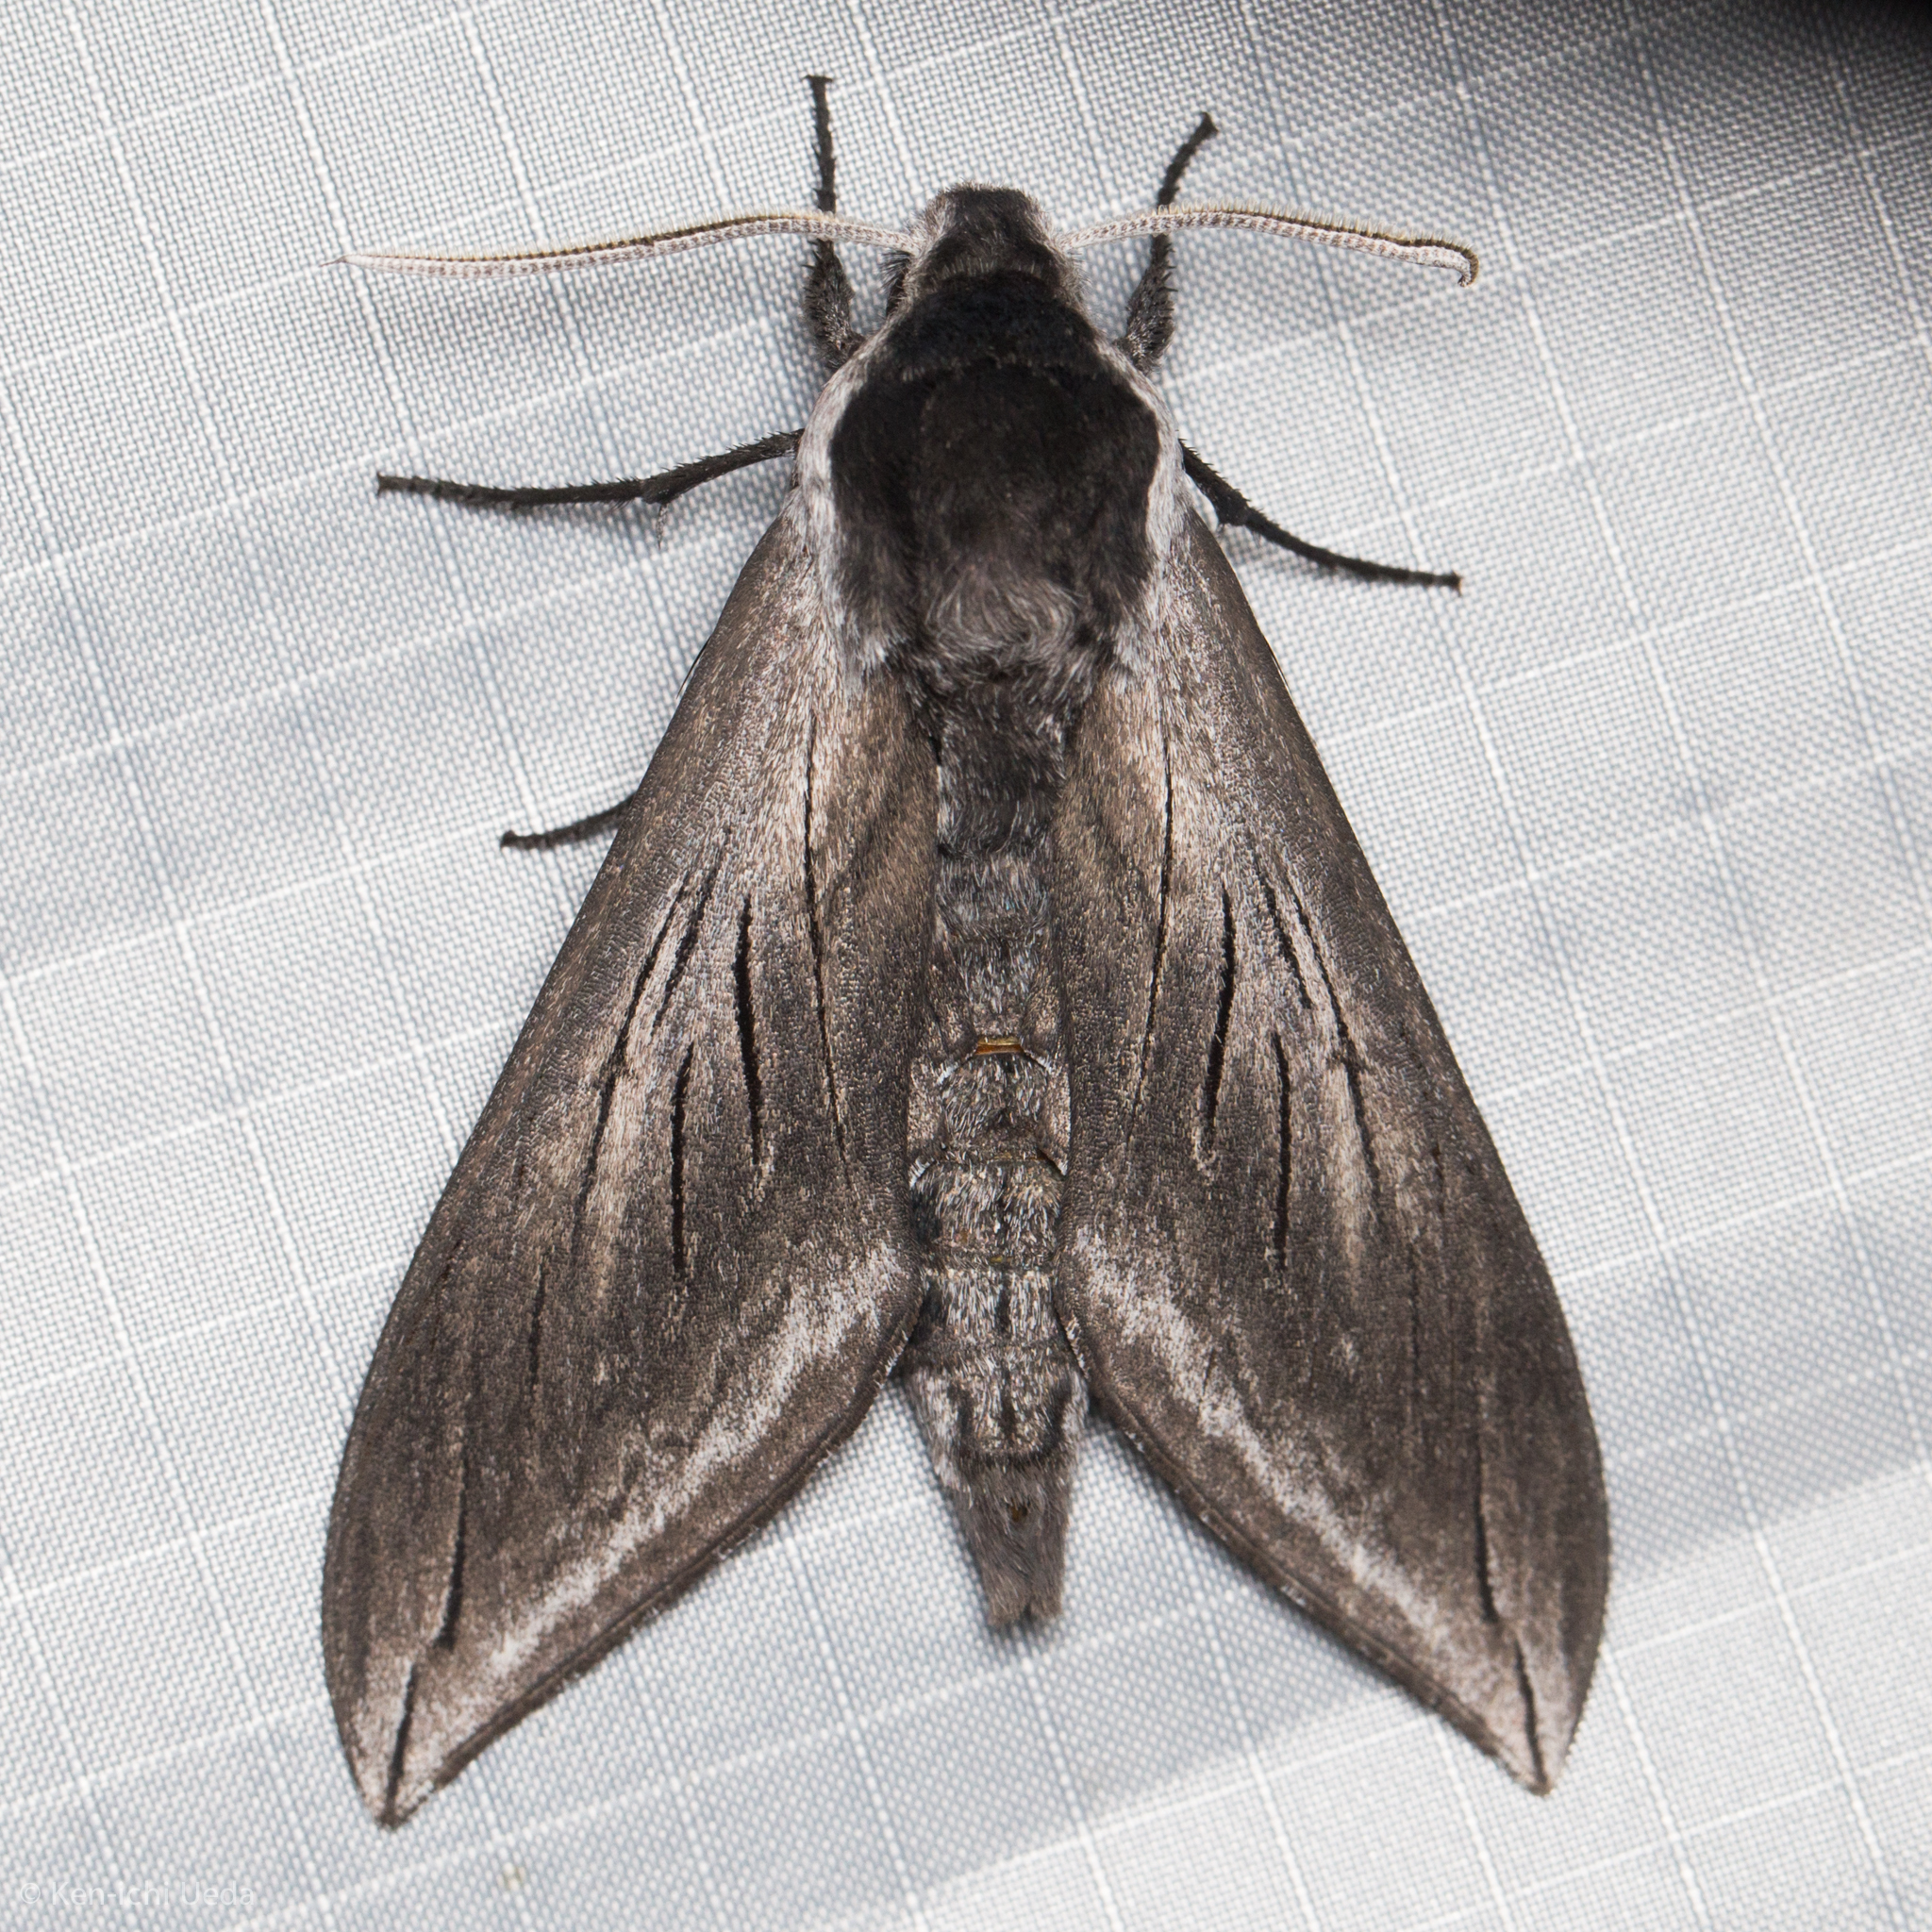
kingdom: Animalia
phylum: Arthropoda
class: Insecta
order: Lepidoptera
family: Sphingidae
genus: Sphinx
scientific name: Sphinx perelegans
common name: Elegant sphinx
